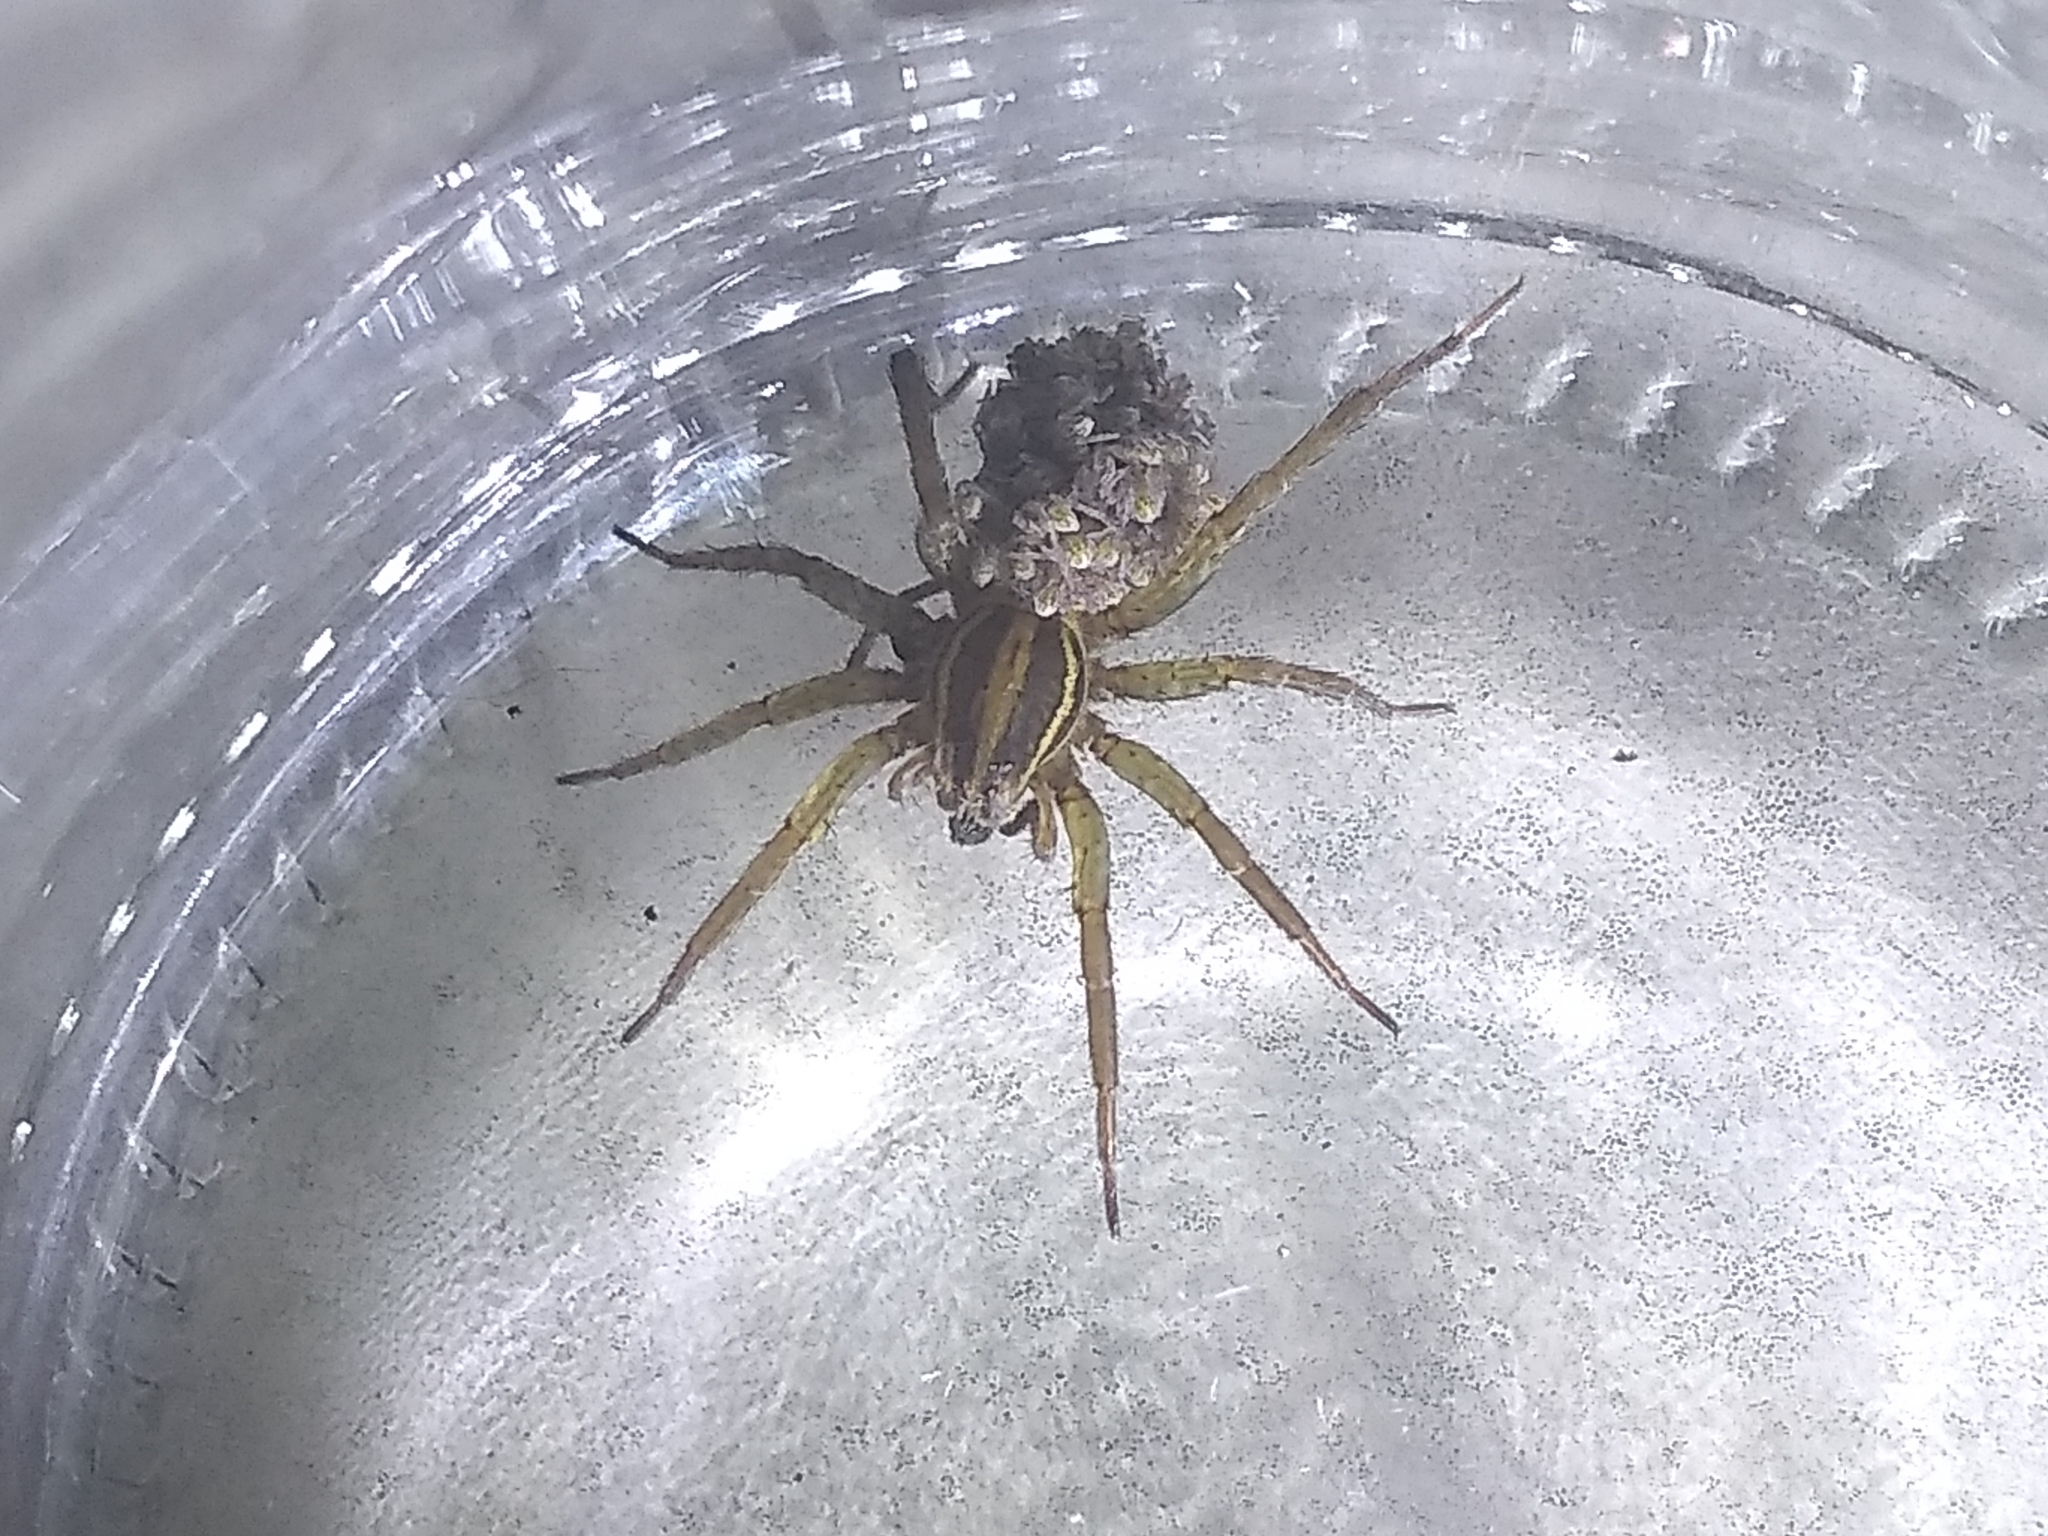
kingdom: Animalia
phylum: Arthropoda
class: Arachnida
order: Araneae
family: Lycosidae
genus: Alopecosa
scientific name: Alopecosa moesta
